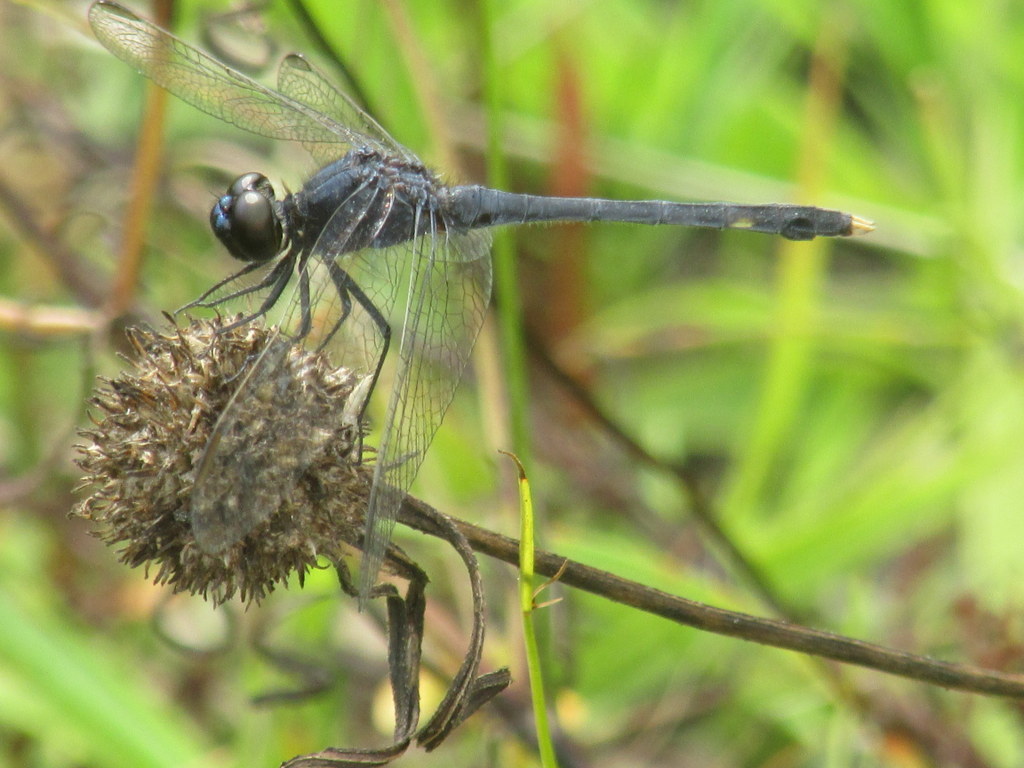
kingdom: Animalia
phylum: Arthropoda
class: Insecta
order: Odonata
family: Libellulidae
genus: Erythrodiplax
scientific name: Erythrodiplax nigricans
